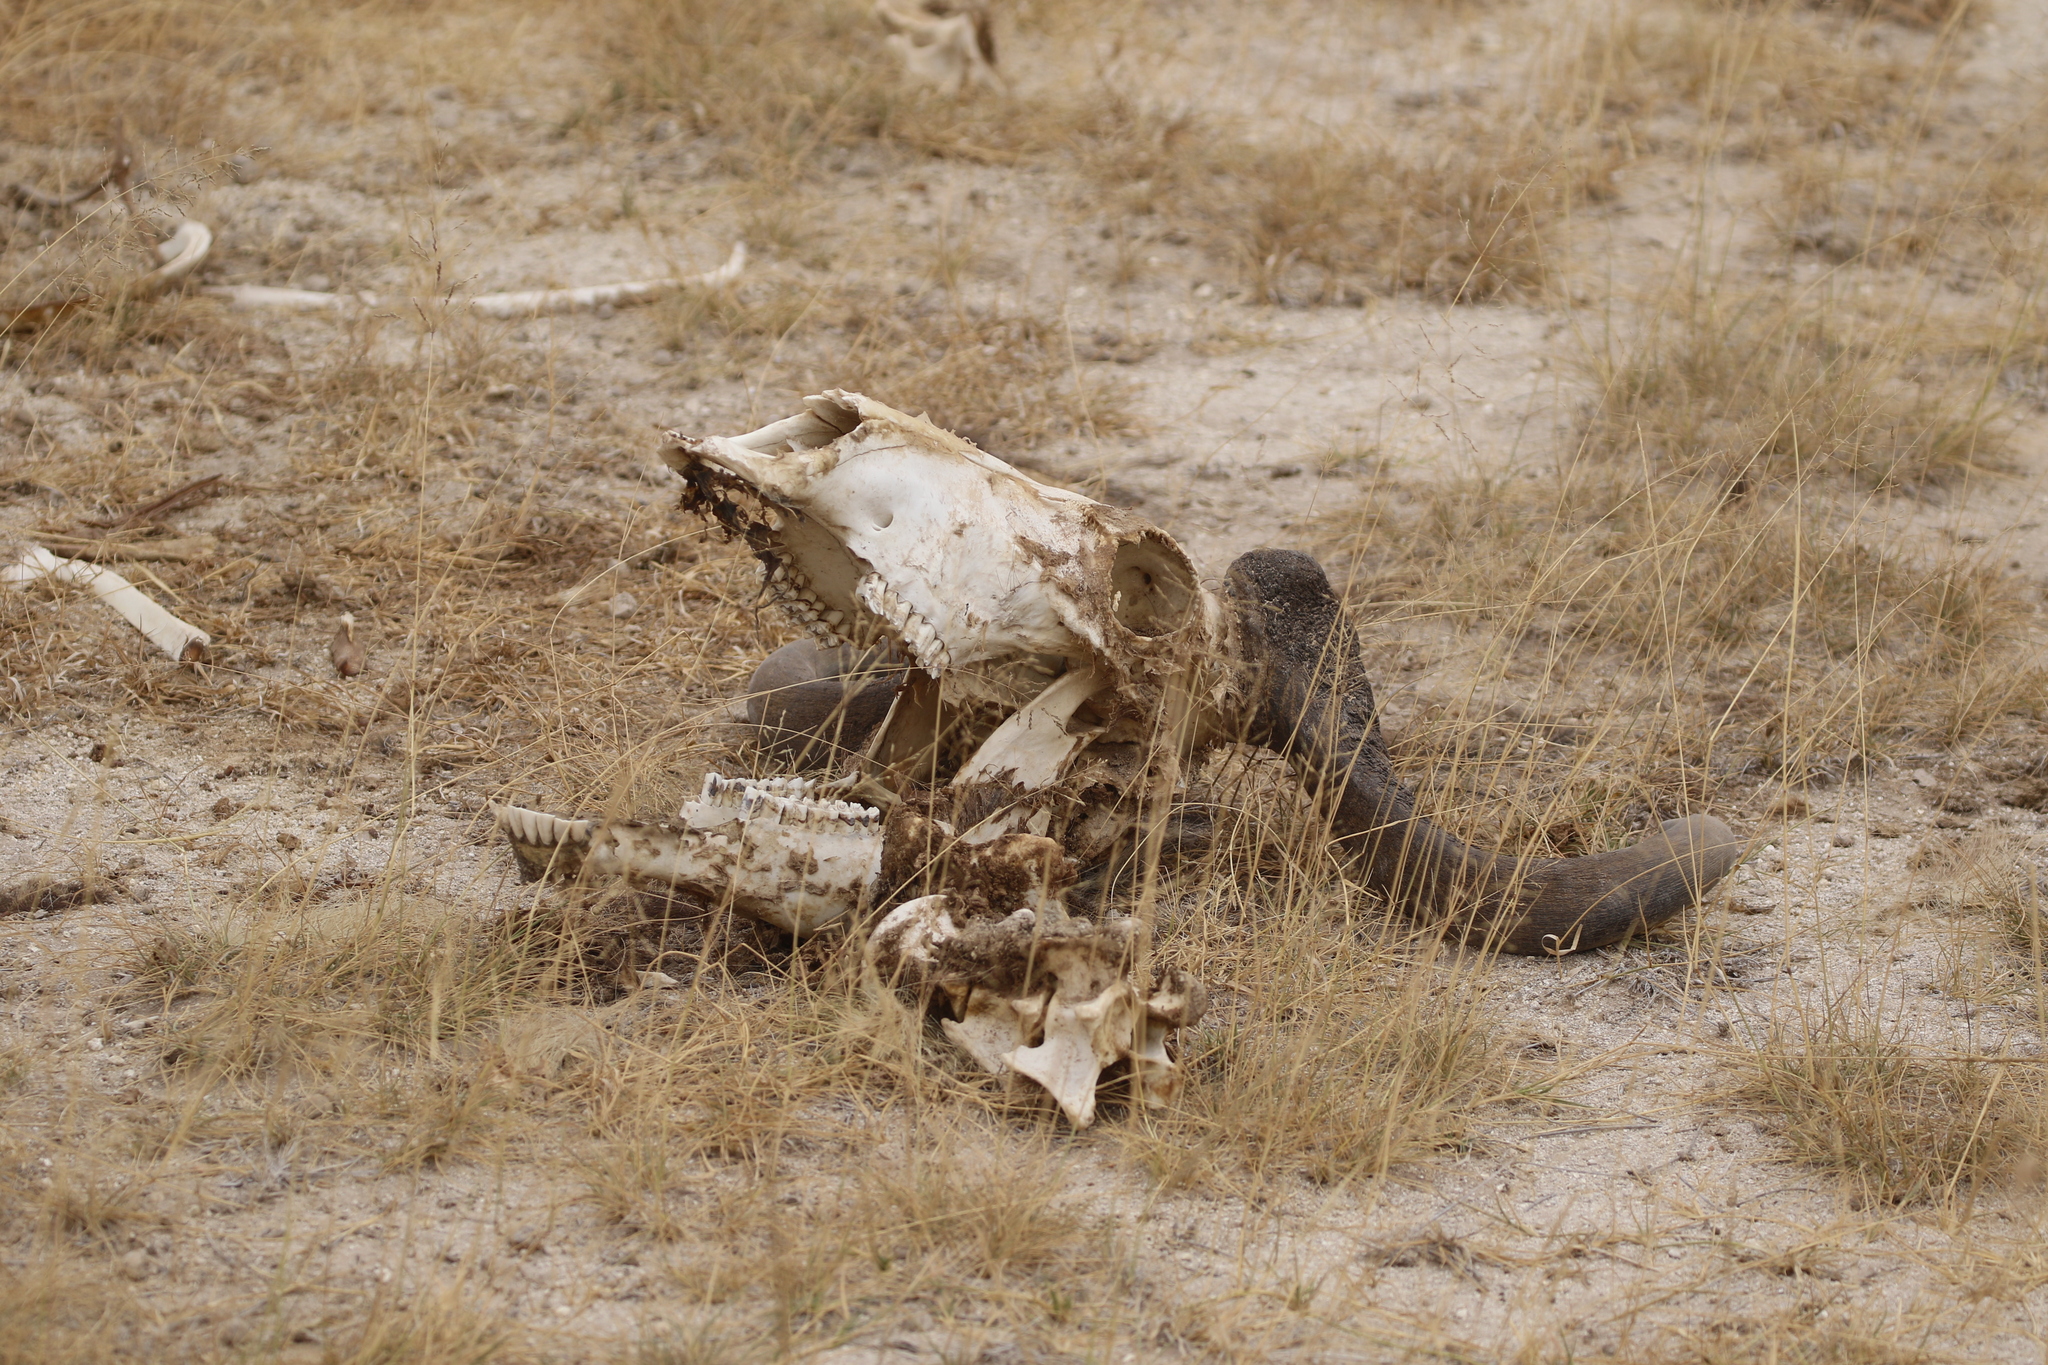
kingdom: Animalia
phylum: Chordata
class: Mammalia
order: Artiodactyla
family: Bovidae
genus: Connochaetes
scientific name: Connochaetes taurinus
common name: Blue wildebeest
